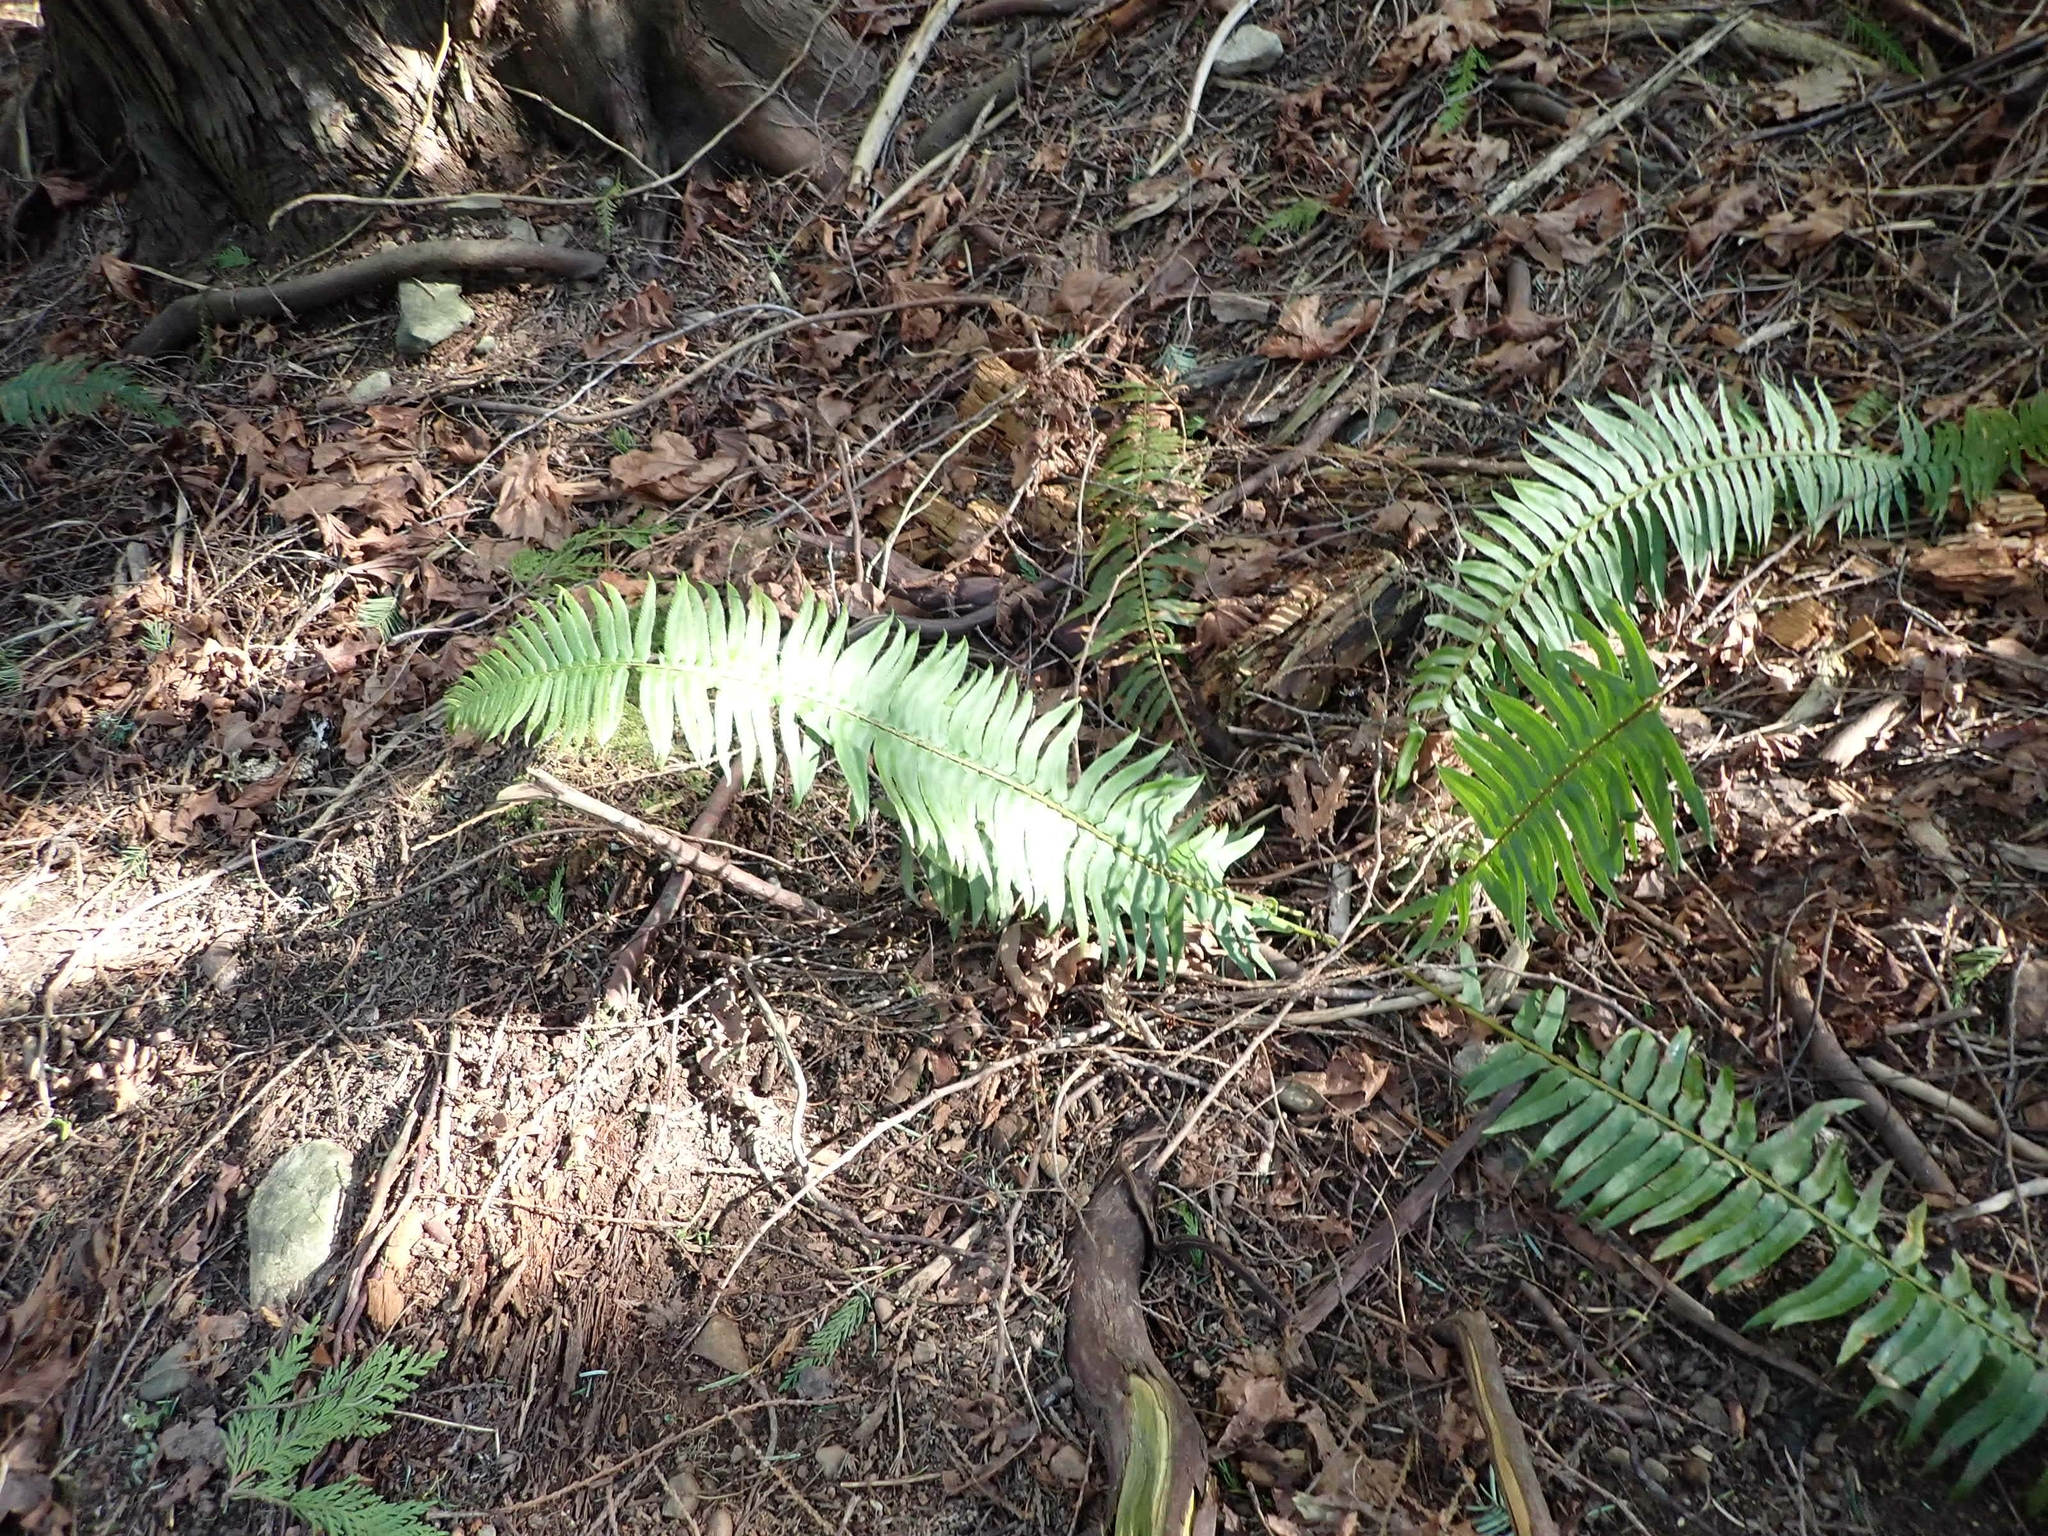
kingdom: Plantae
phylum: Tracheophyta
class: Polypodiopsida
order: Polypodiales
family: Dryopteridaceae
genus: Polystichum
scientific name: Polystichum munitum
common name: Western sword-fern
